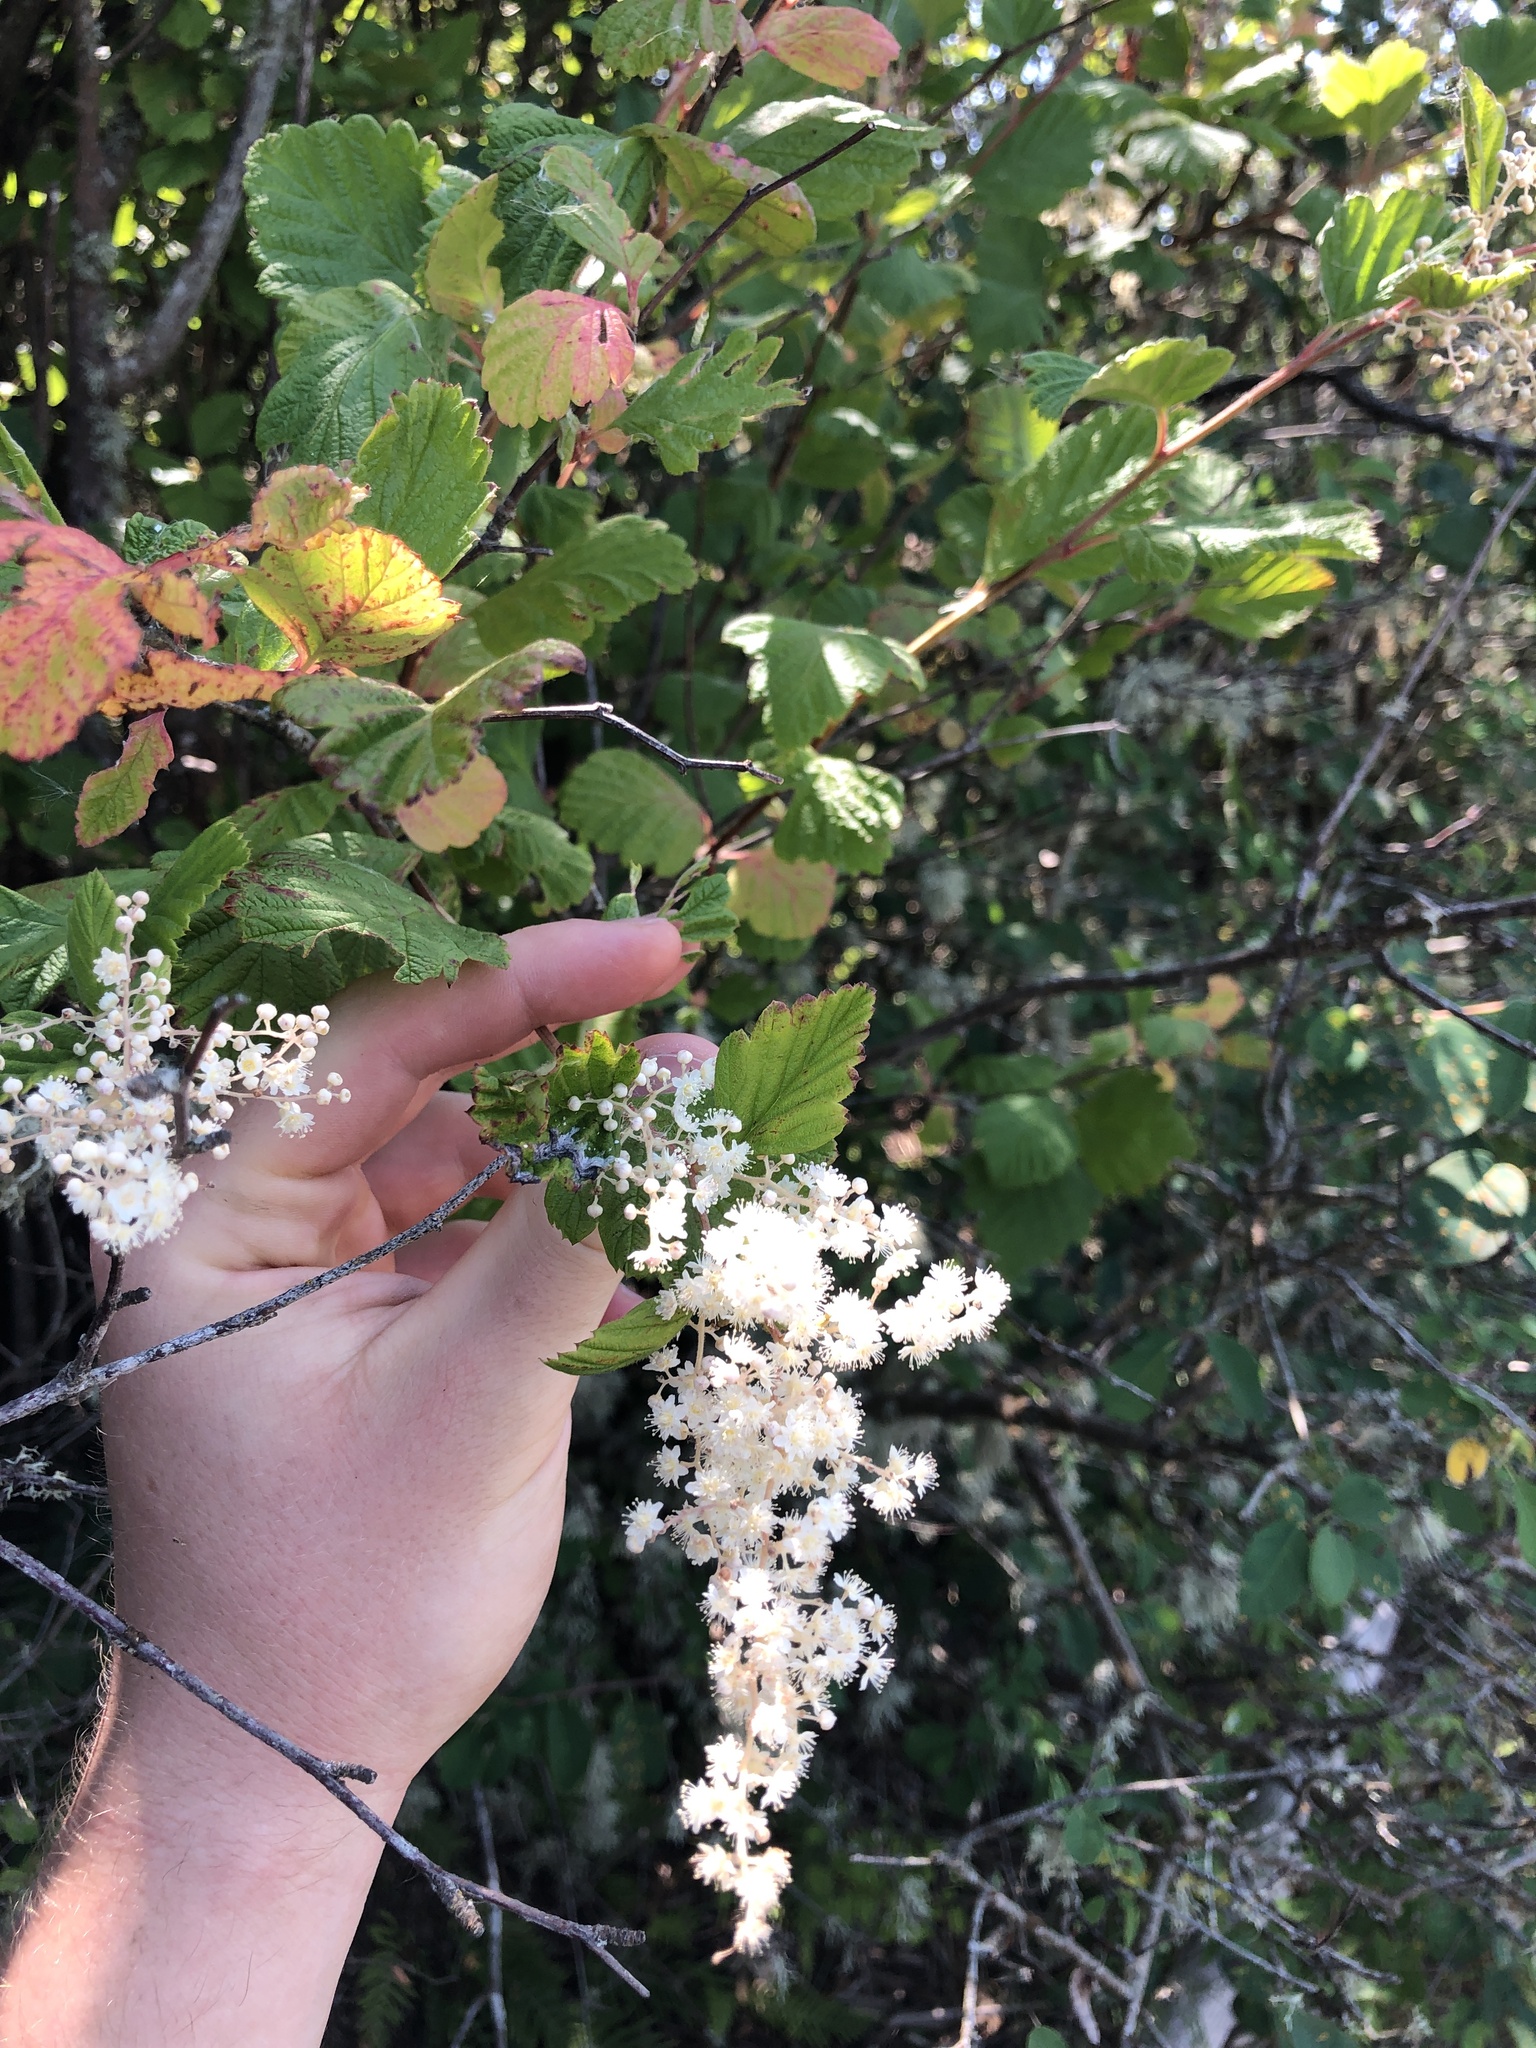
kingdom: Plantae
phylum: Tracheophyta
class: Magnoliopsida
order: Rosales
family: Rosaceae
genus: Holodiscus
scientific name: Holodiscus discolor
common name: Oceanspray
